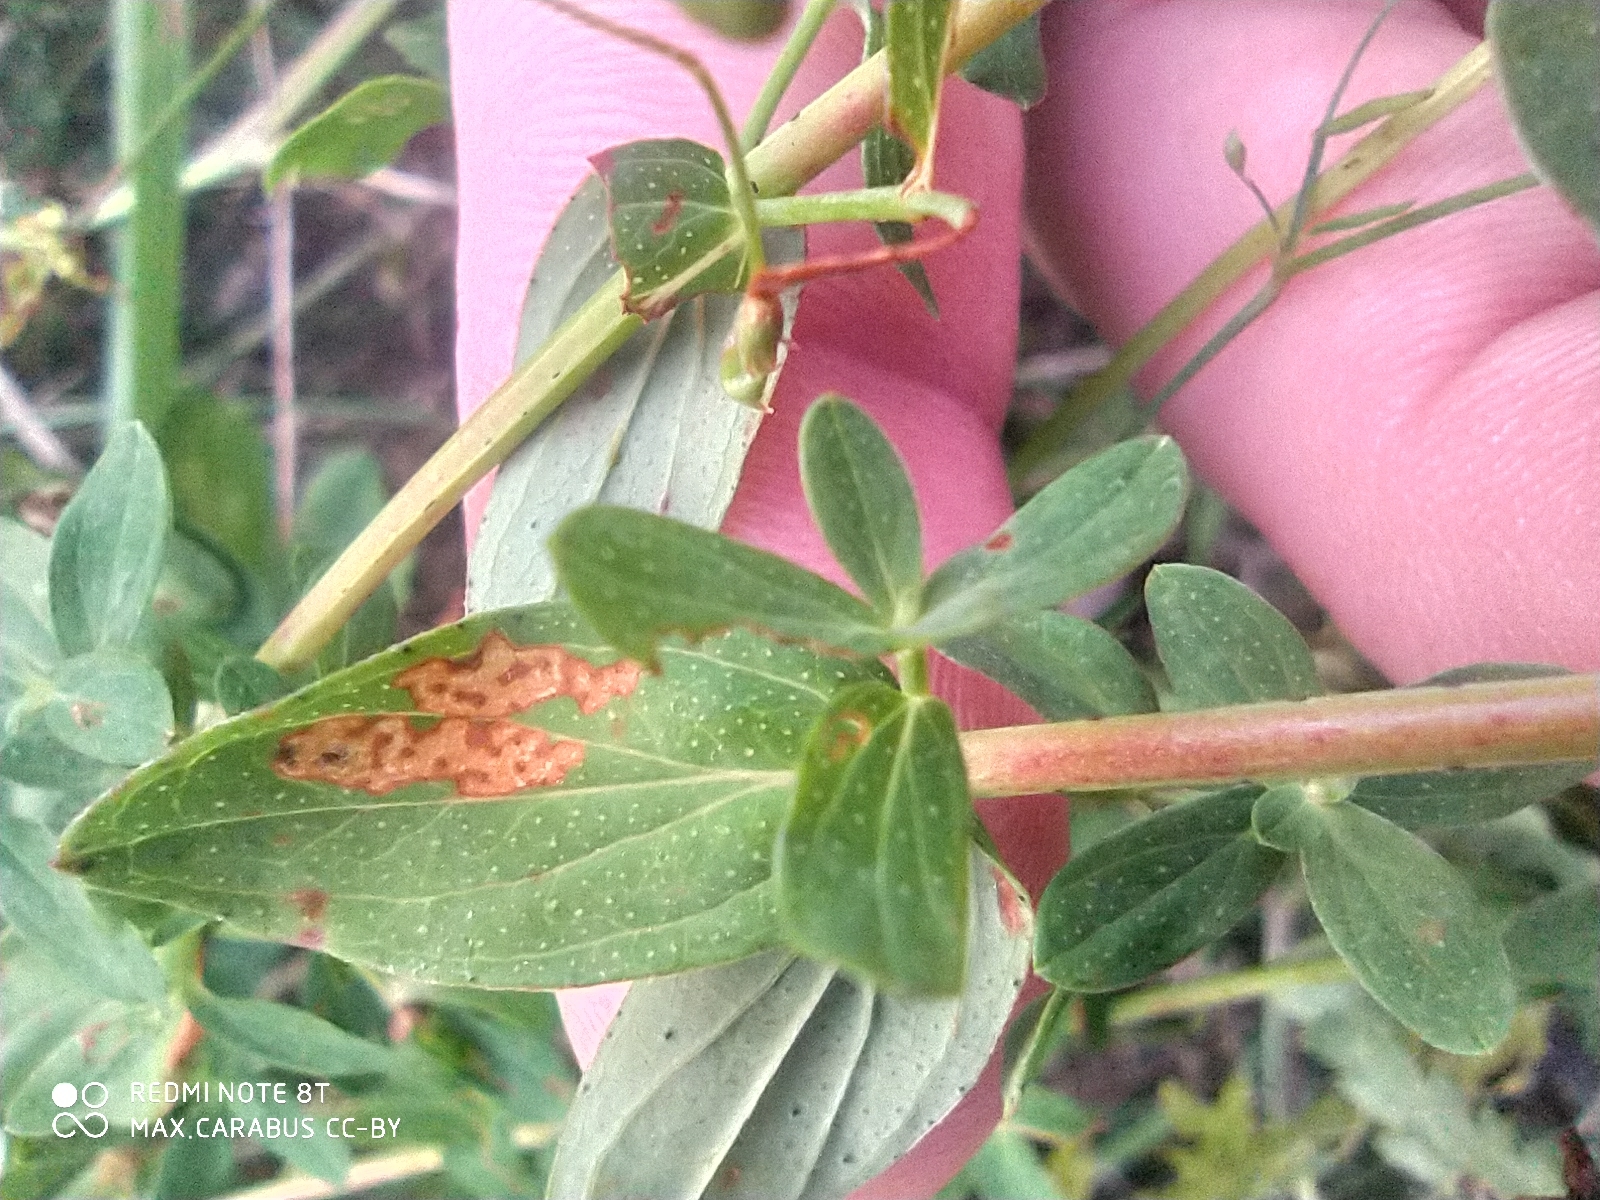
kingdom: Plantae
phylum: Tracheophyta
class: Magnoliopsida
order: Malpighiales
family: Hypericaceae
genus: Hypericum
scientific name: Hypericum perforatum
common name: Common st. johnswort
